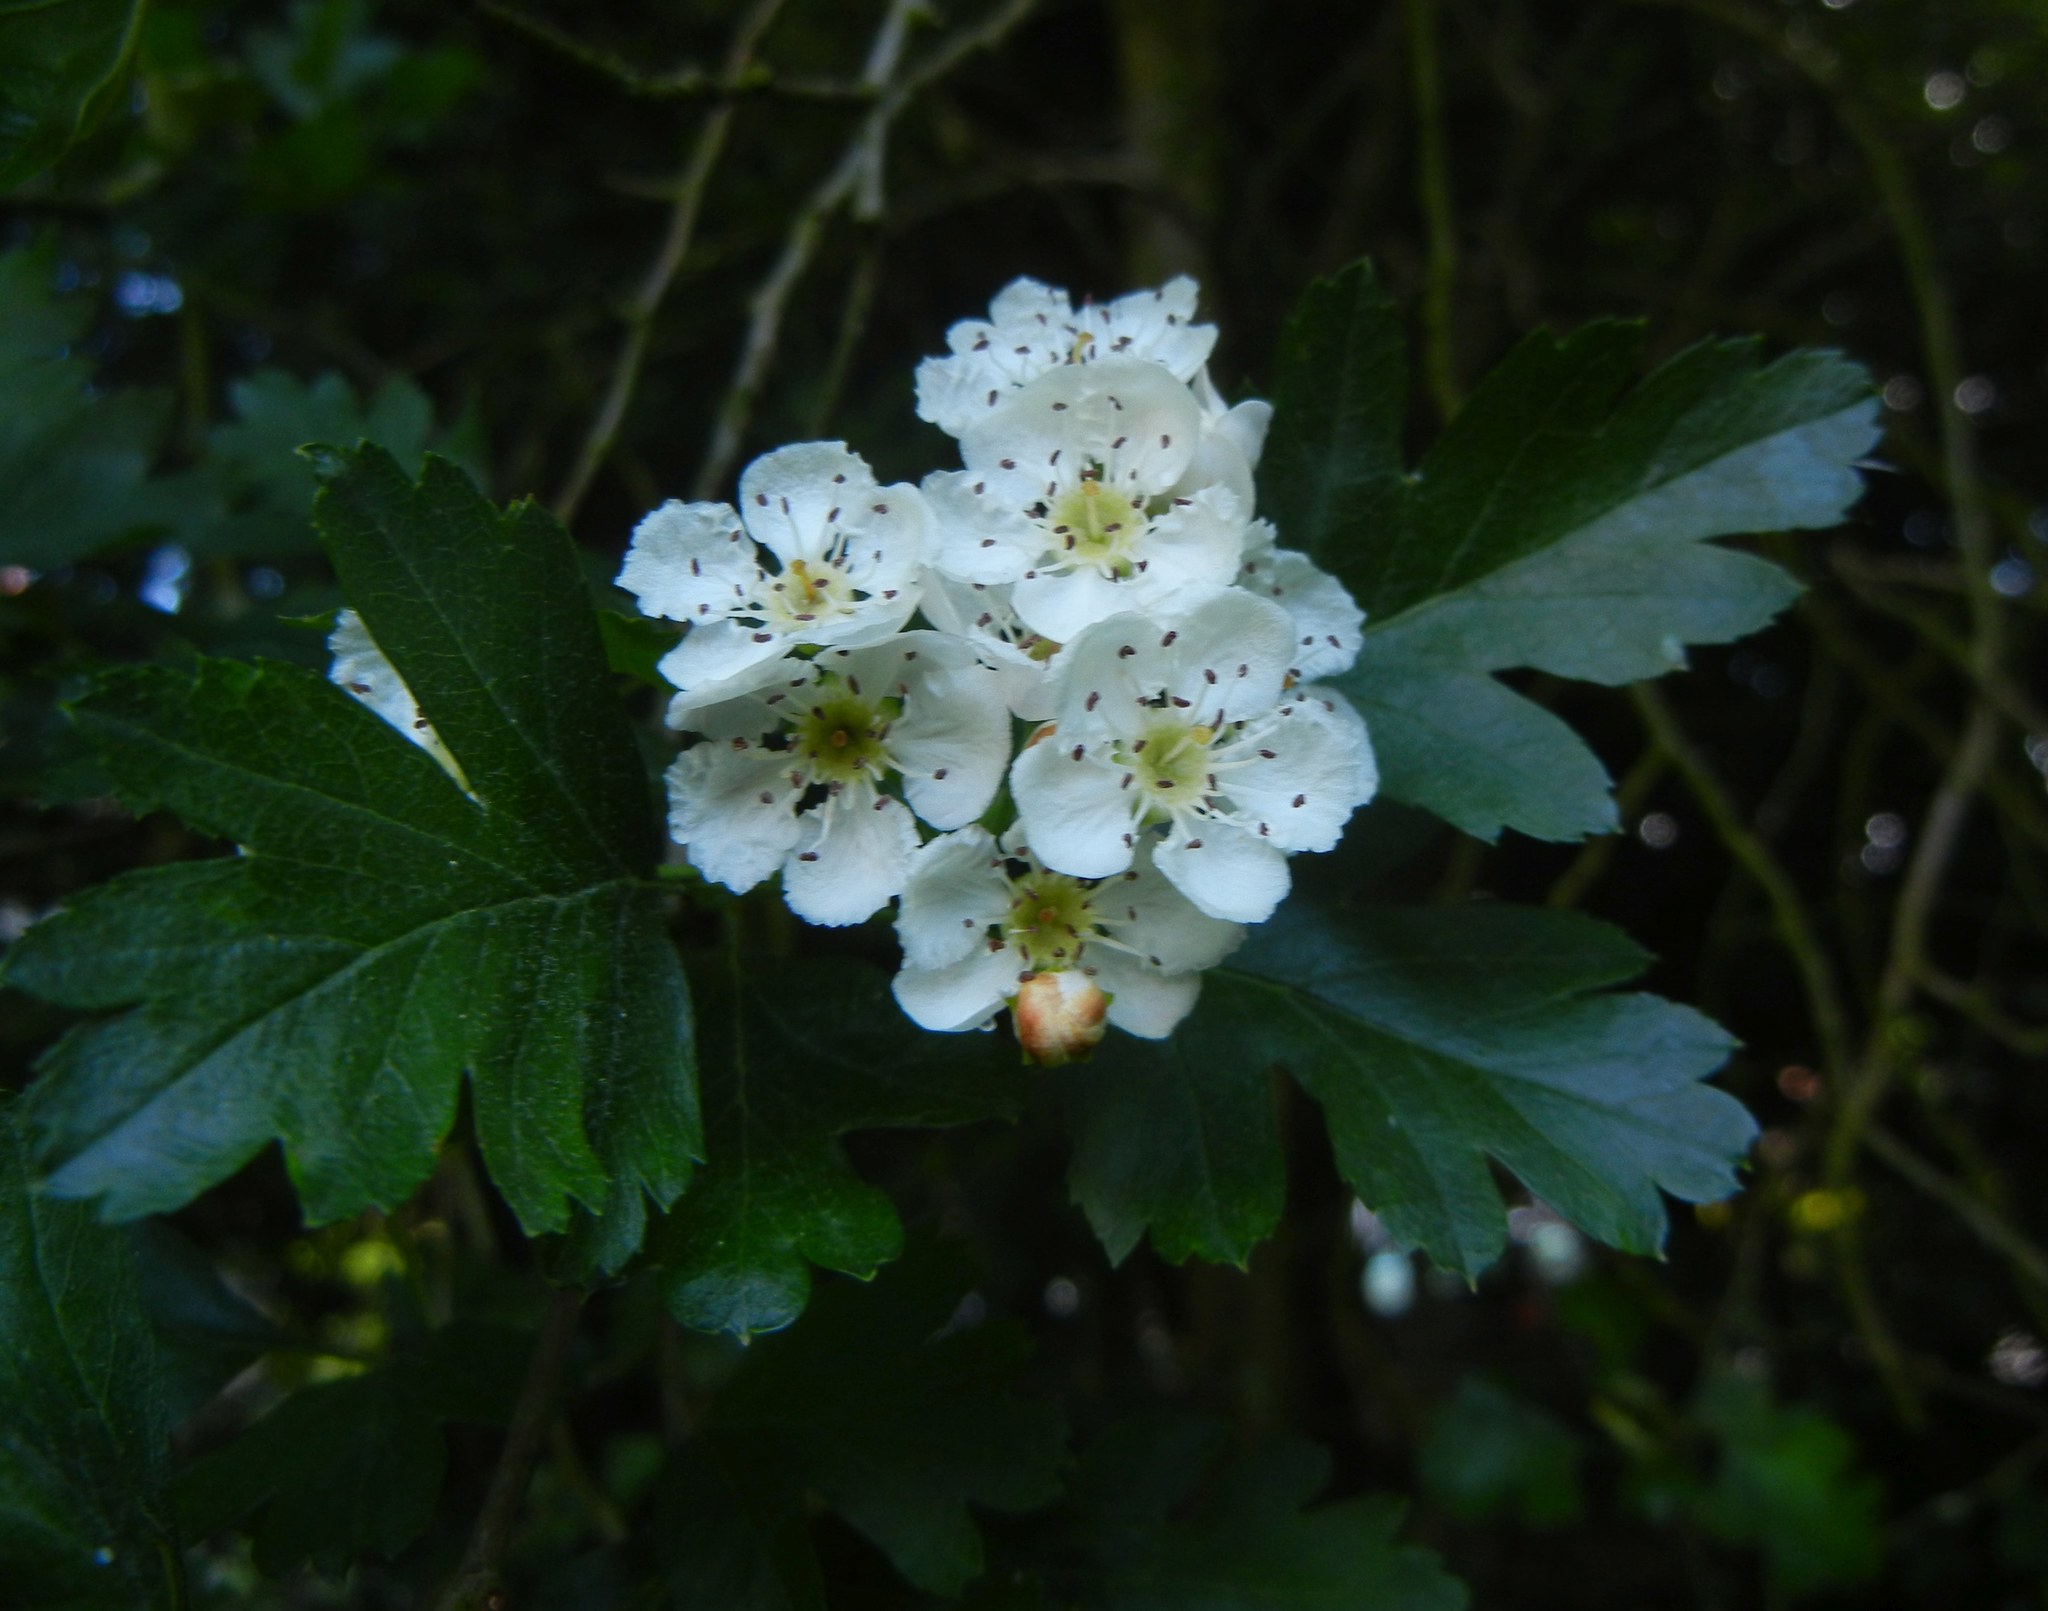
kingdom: Plantae
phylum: Tracheophyta
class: Magnoliopsida
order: Rosales
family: Rosaceae
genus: Crataegus
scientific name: Crataegus monogyna
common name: Hawthorn
